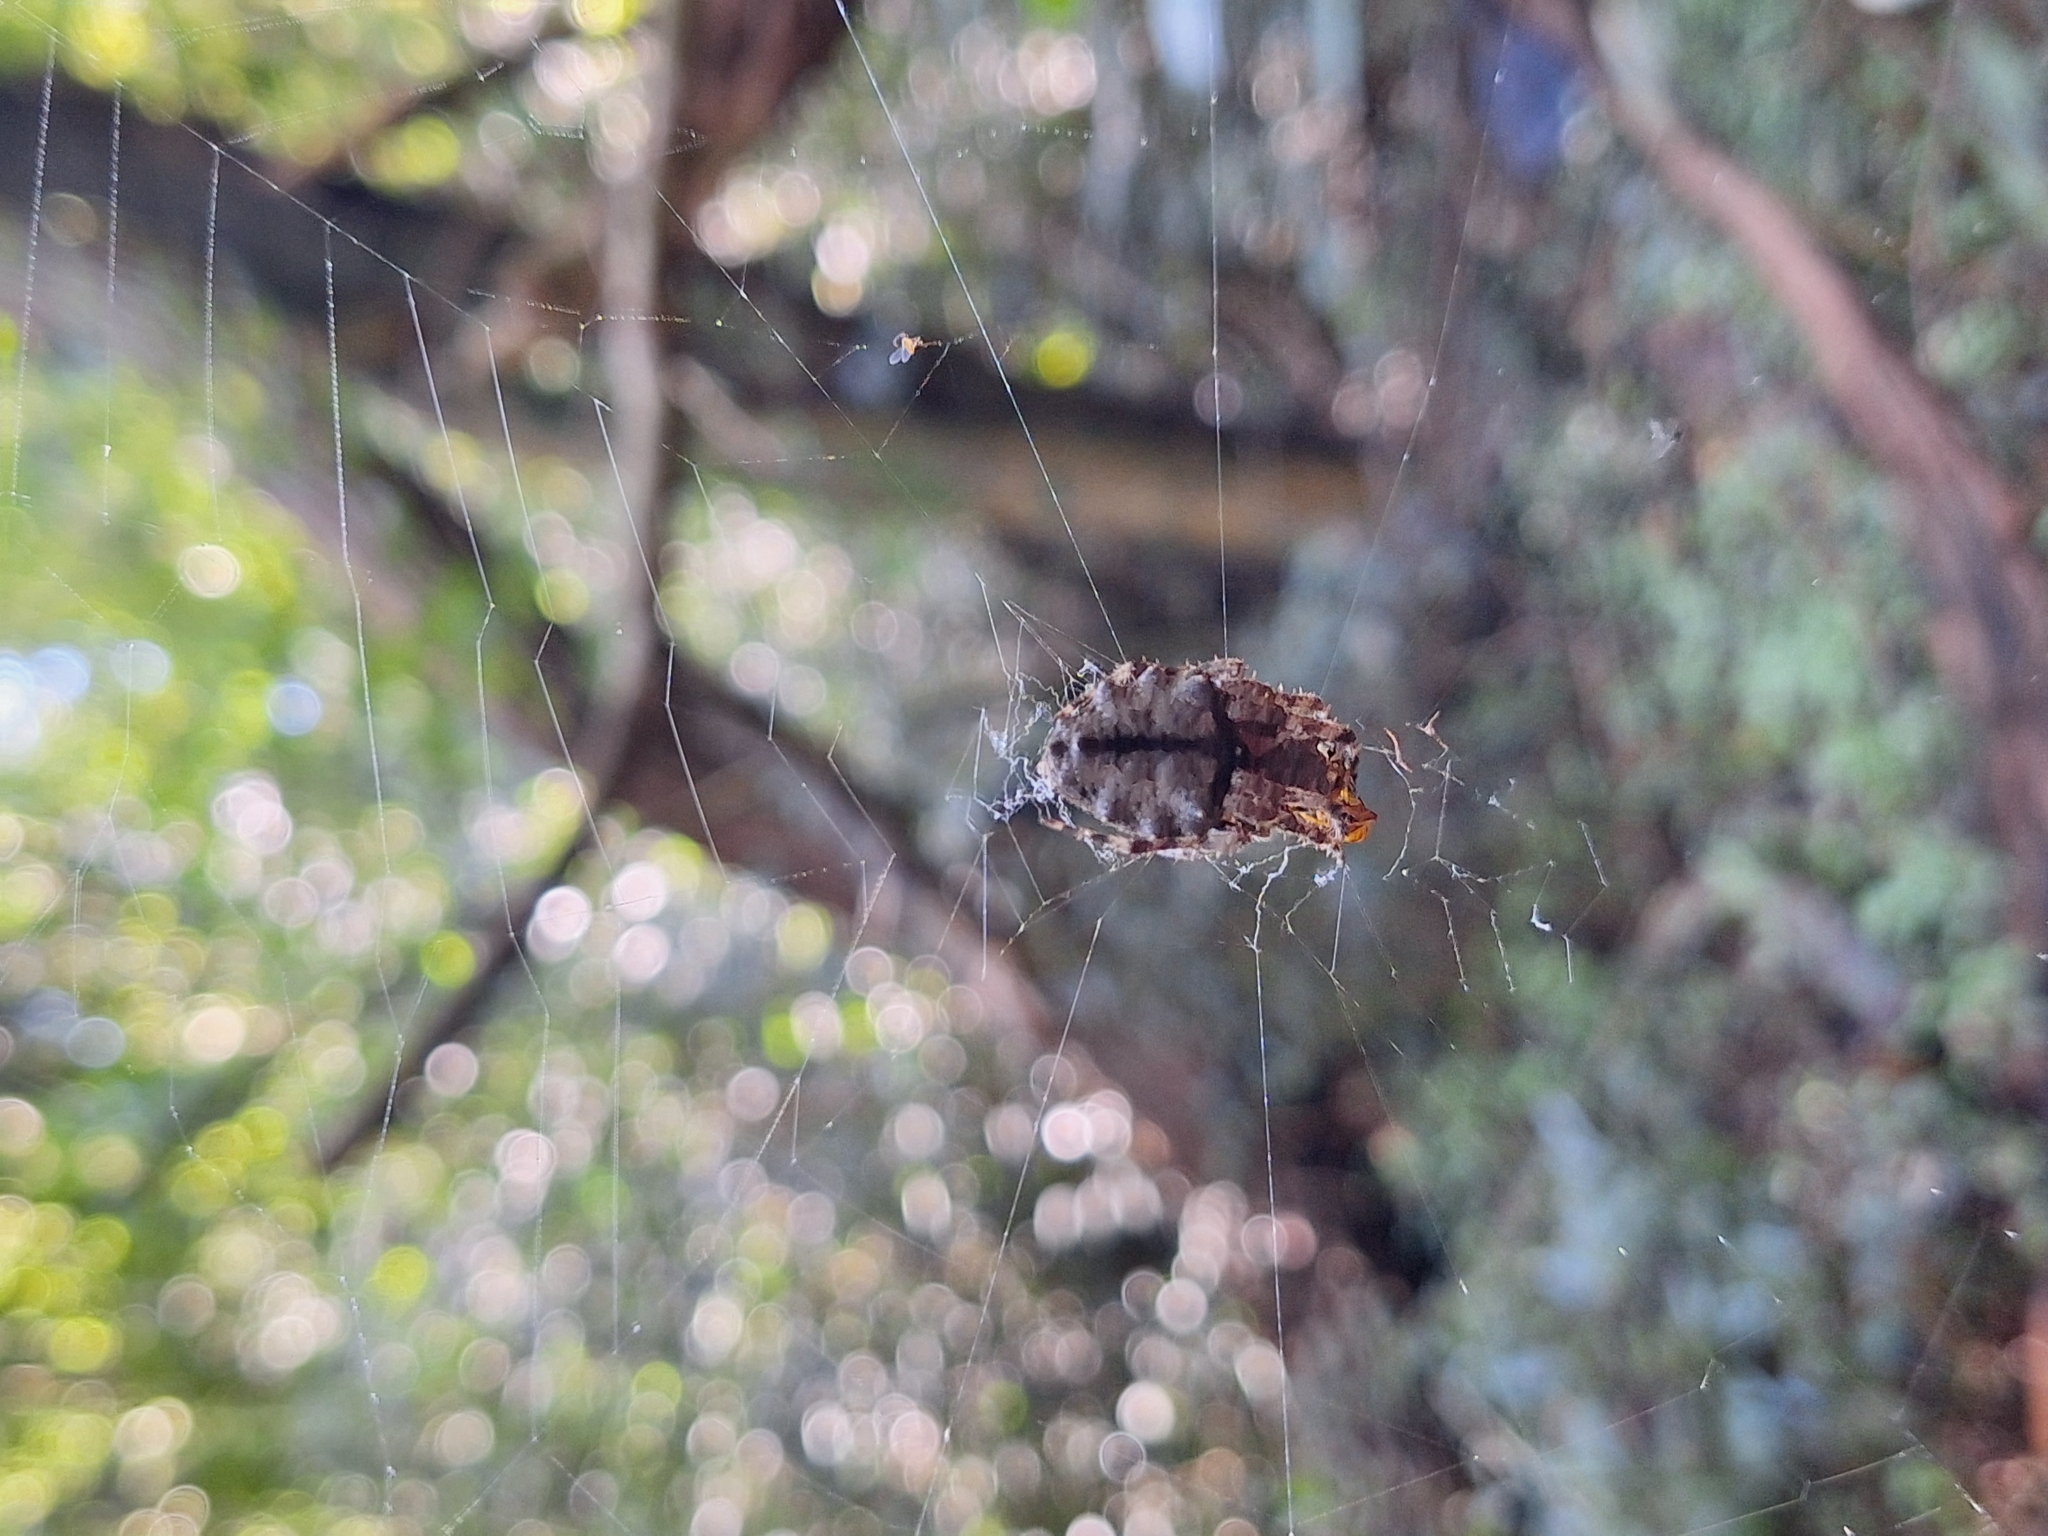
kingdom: Animalia
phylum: Arthropoda
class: Arachnida
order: Araneae
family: Araneidae
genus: Parawixia
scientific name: Parawixia audax
